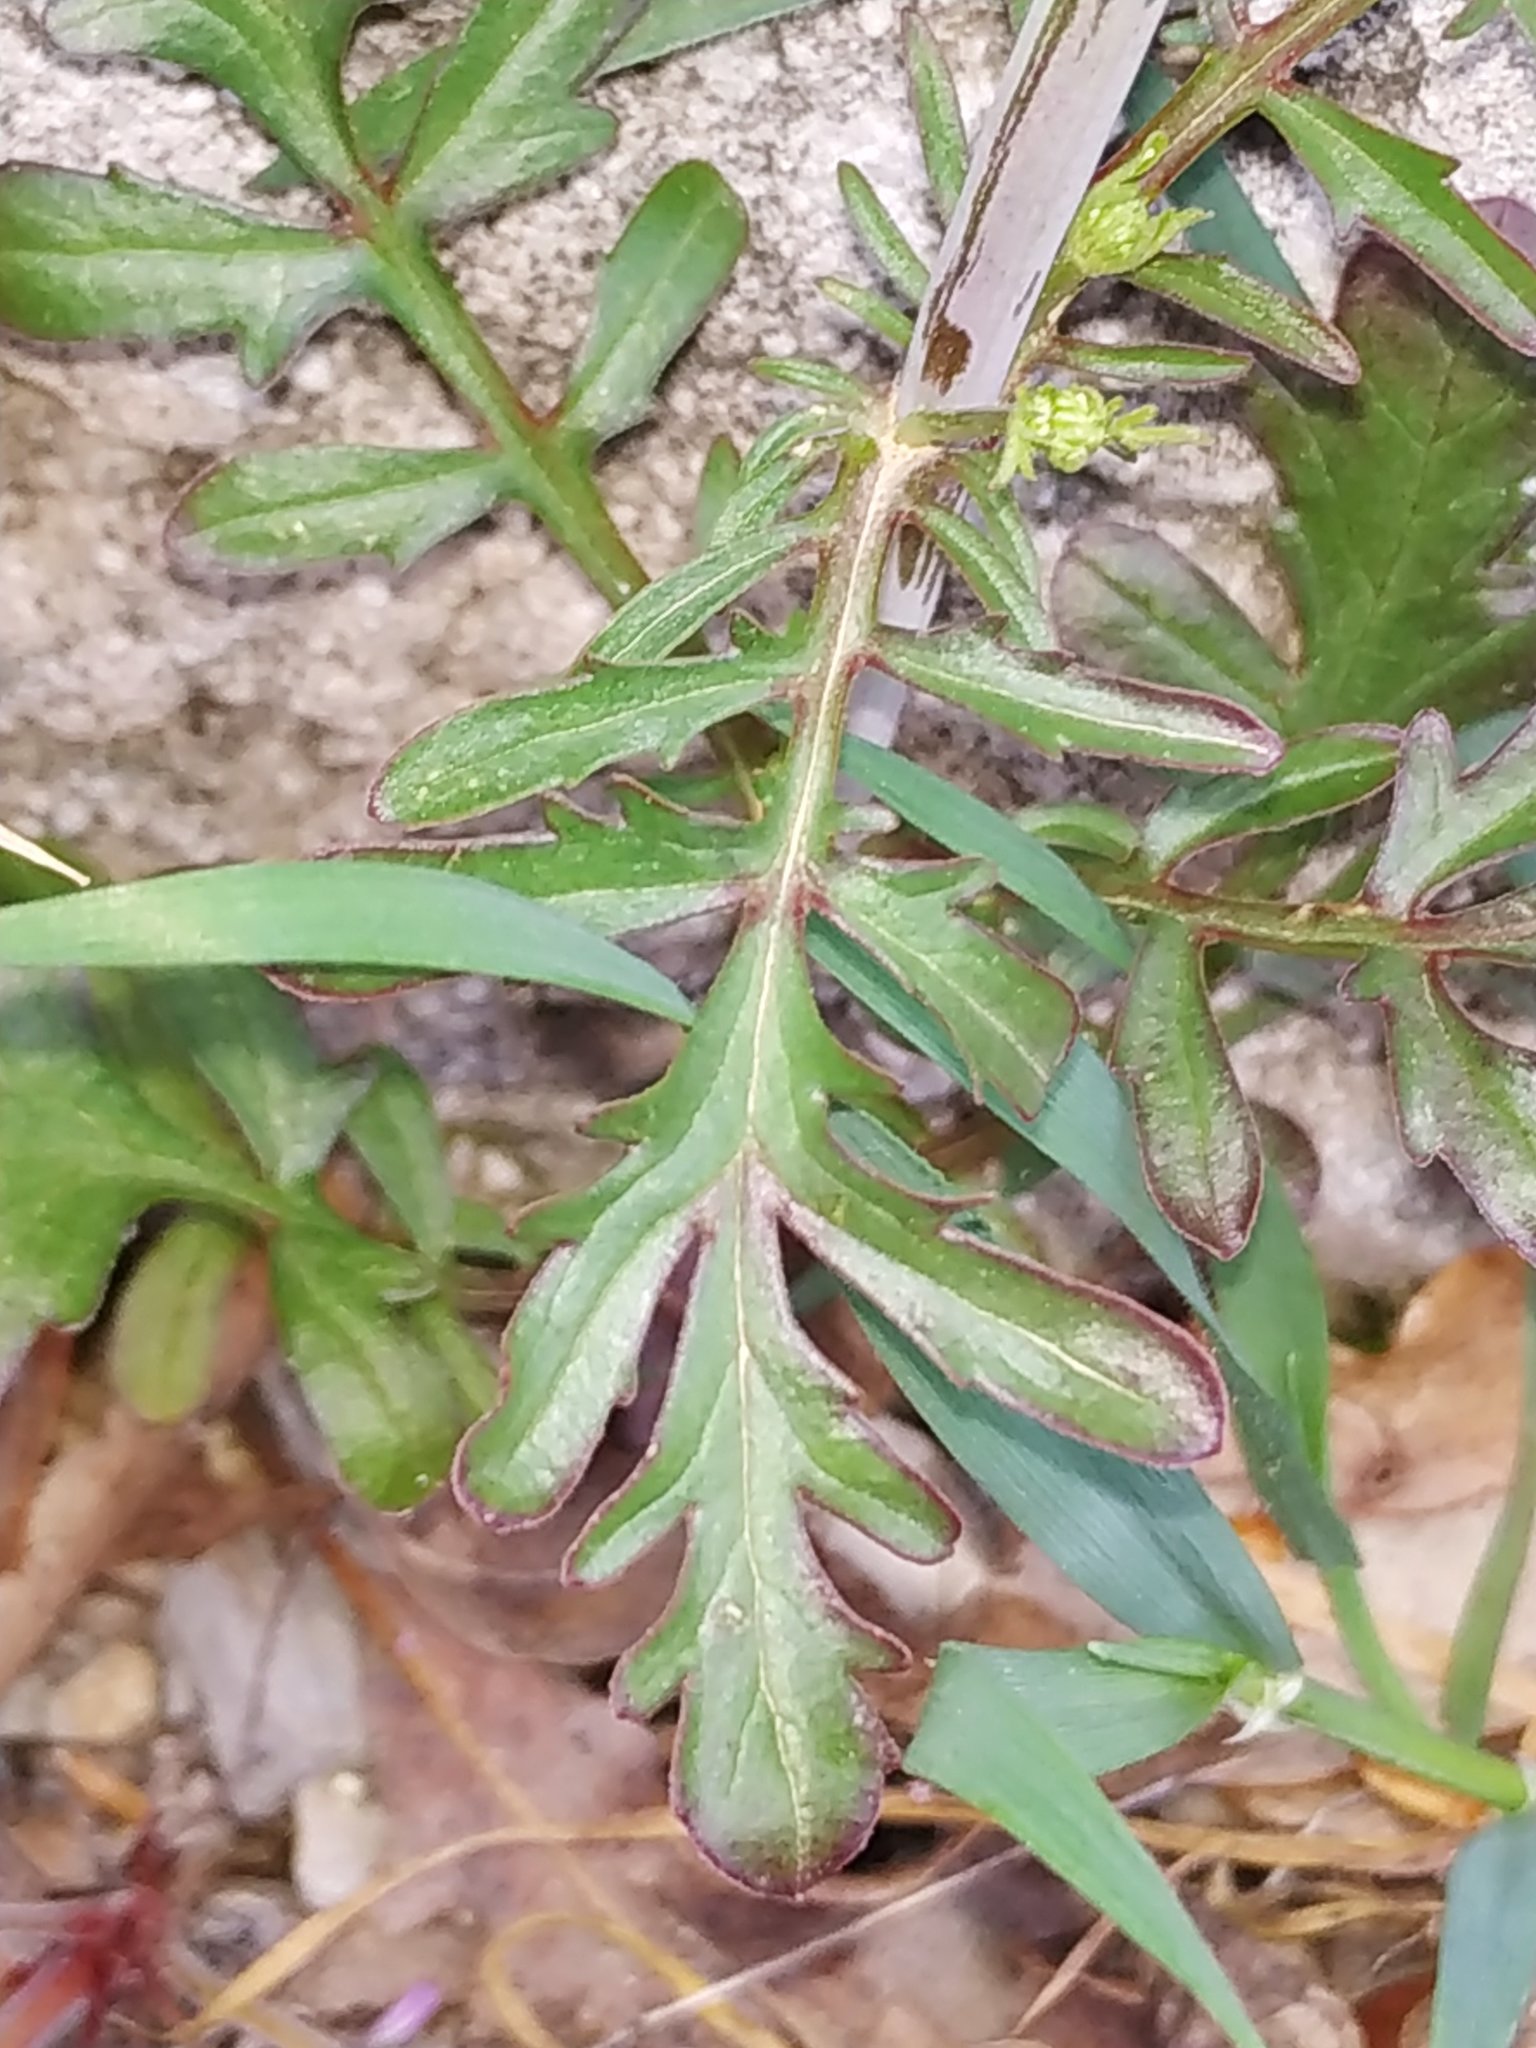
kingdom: Plantae
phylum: Tracheophyta
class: Magnoliopsida
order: Dipsacales
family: Caprifoliaceae
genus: Centranthus
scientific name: Centranthus calcitrapae
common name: Annual valerian
